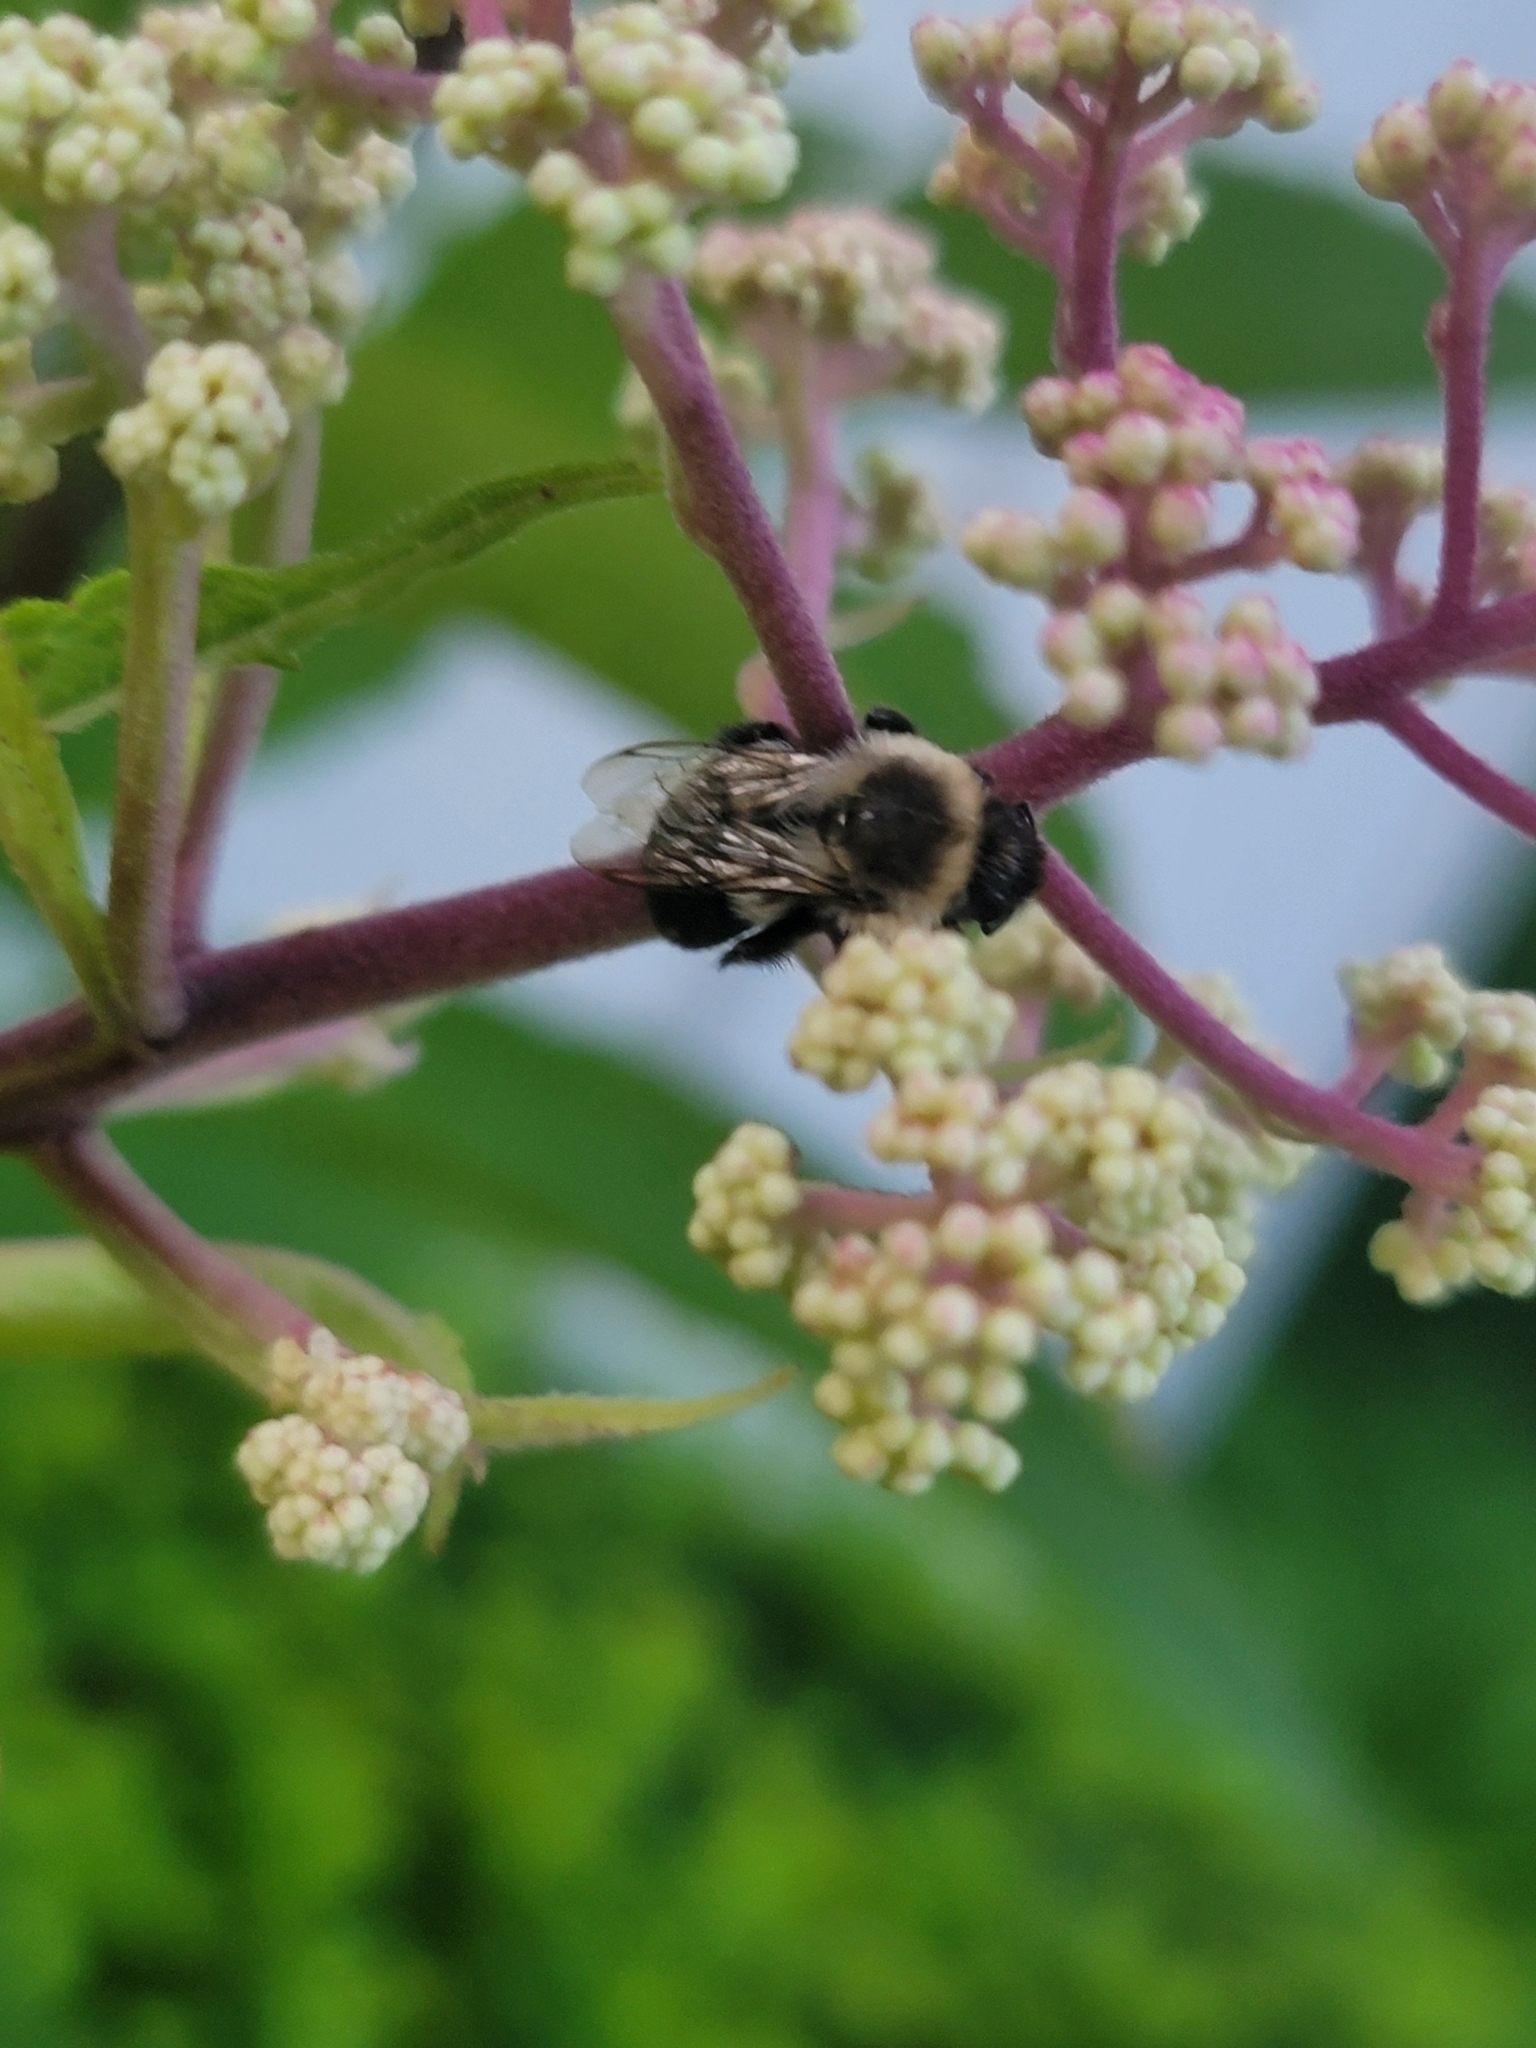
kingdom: Animalia
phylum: Arthropoda
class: Insecta
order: Hymenoptera
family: Apidae
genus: Bombus
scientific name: Bombus impatiens
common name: Common eastern bumble bee
